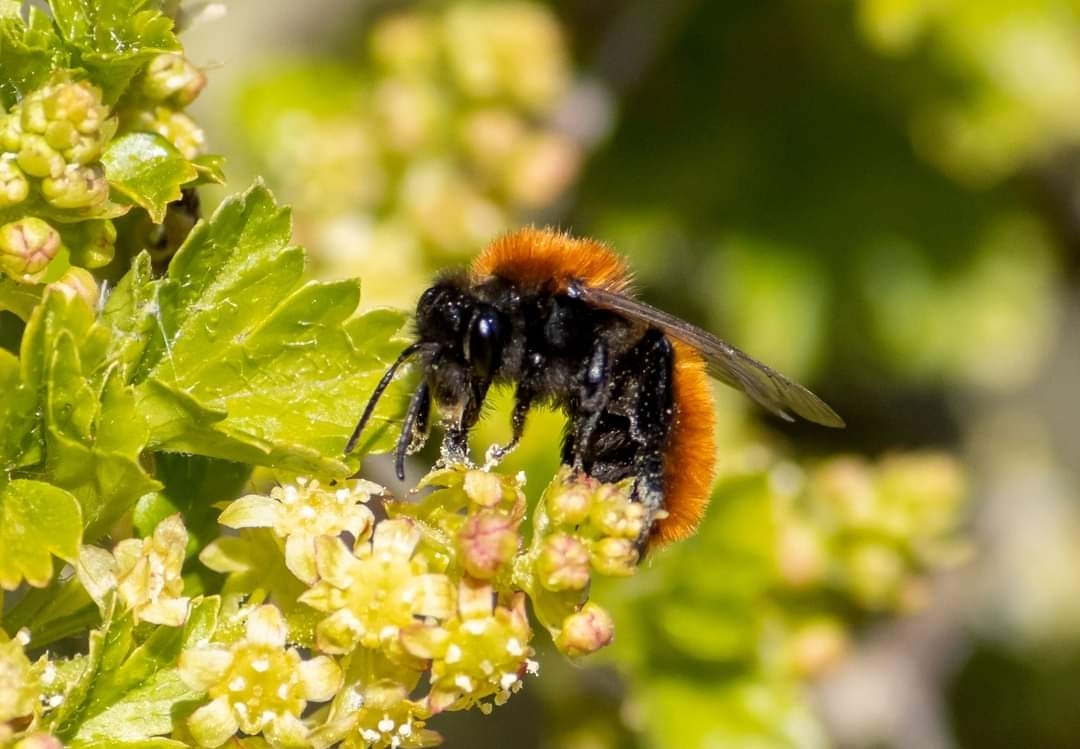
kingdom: Animalia
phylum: Arthropoda
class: Insecta
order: Hymenoptera
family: Andrenidae
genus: Andrena
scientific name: Andrena fulva
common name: Tawny mining bee
